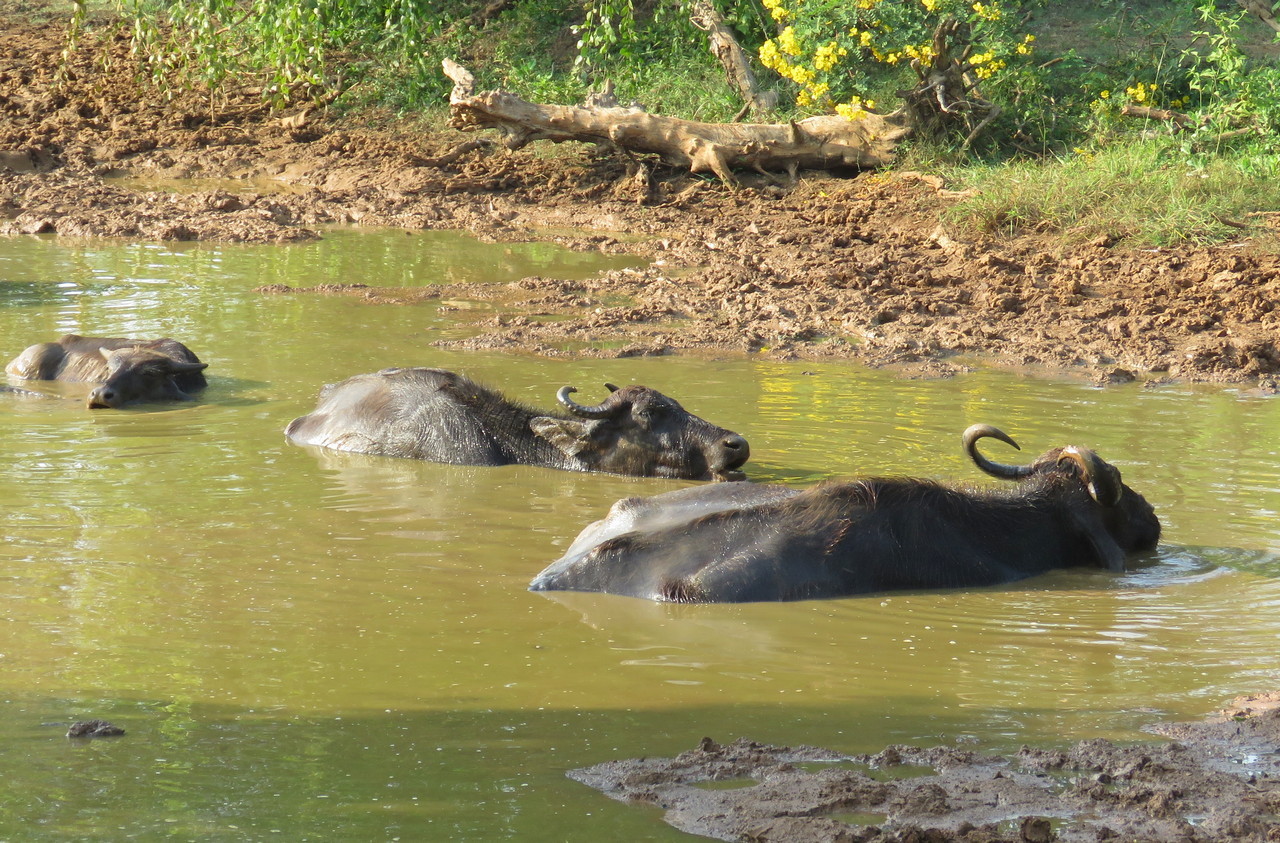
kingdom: Animalia
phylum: Chordata
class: Mammalia
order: Artiodactyla
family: Bovidae
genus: Bubalus
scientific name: Bubalus bubalis
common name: Water buffalo
